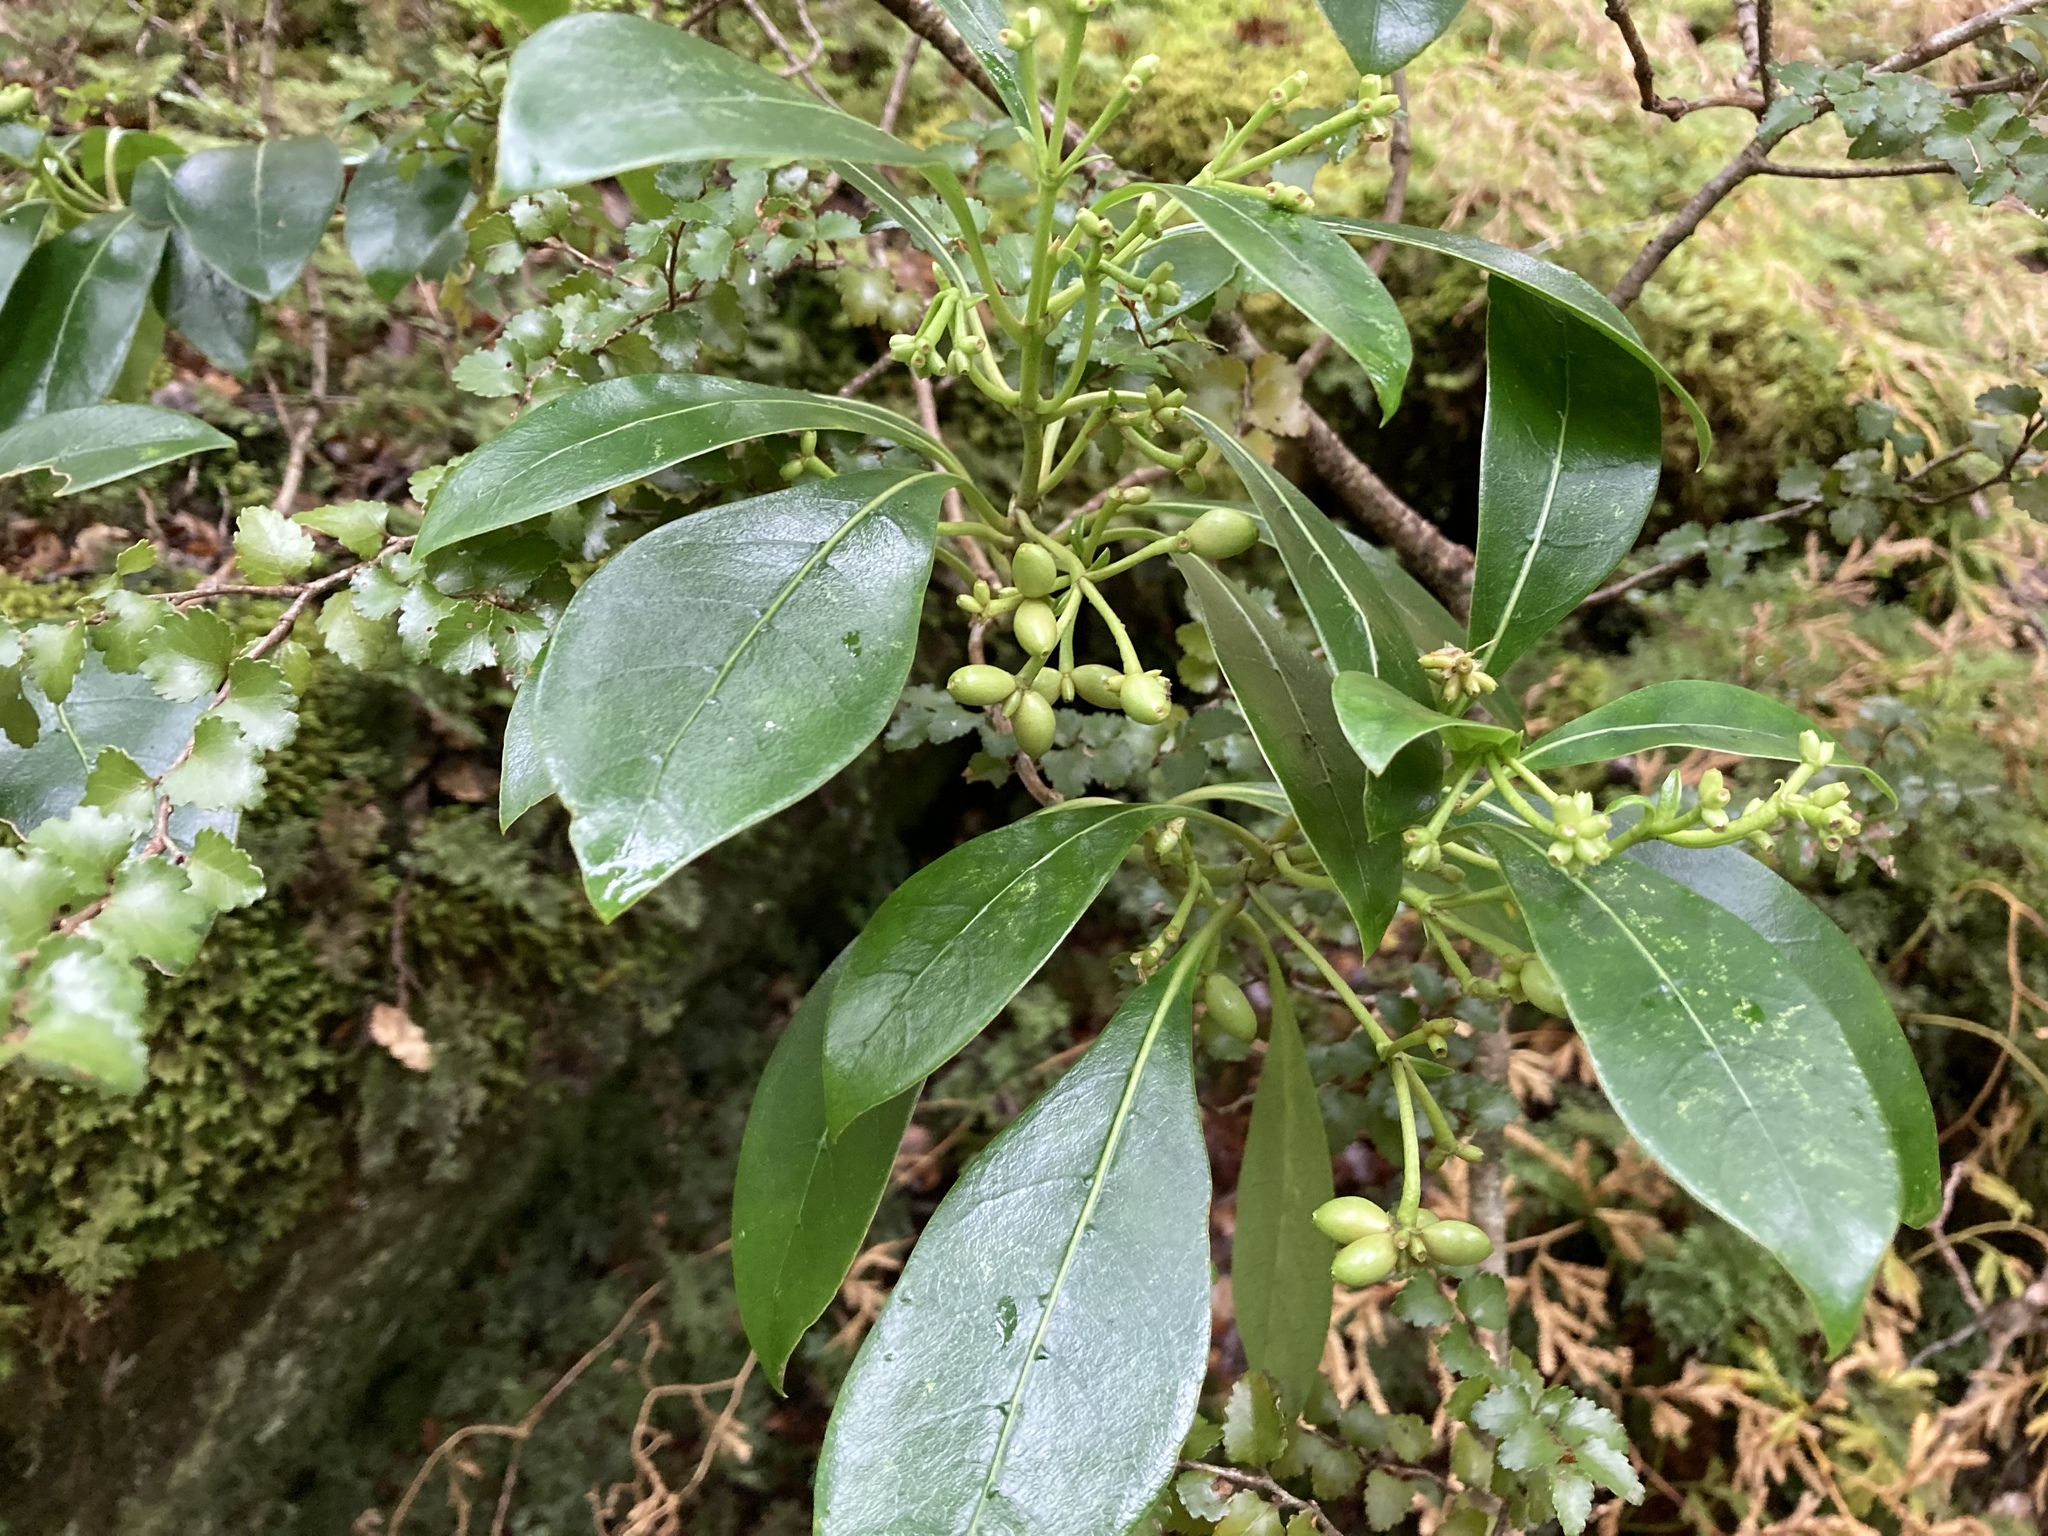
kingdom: Plantae
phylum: Tracheophyta
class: Magnoliopsida
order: Gentianales
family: Rubiaceae
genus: Coprosma
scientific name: Coprosma lucida
